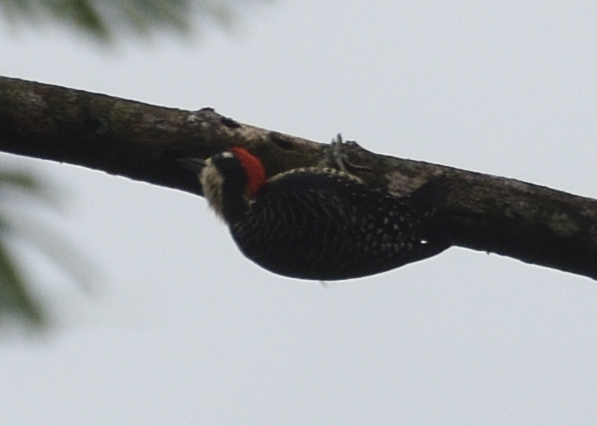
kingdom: Animalia
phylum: Chordata
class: Aves
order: Piciformes
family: Picidae
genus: Melanerpes
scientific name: Melanerpes pucherani
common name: Black-cheeked woodpecker
